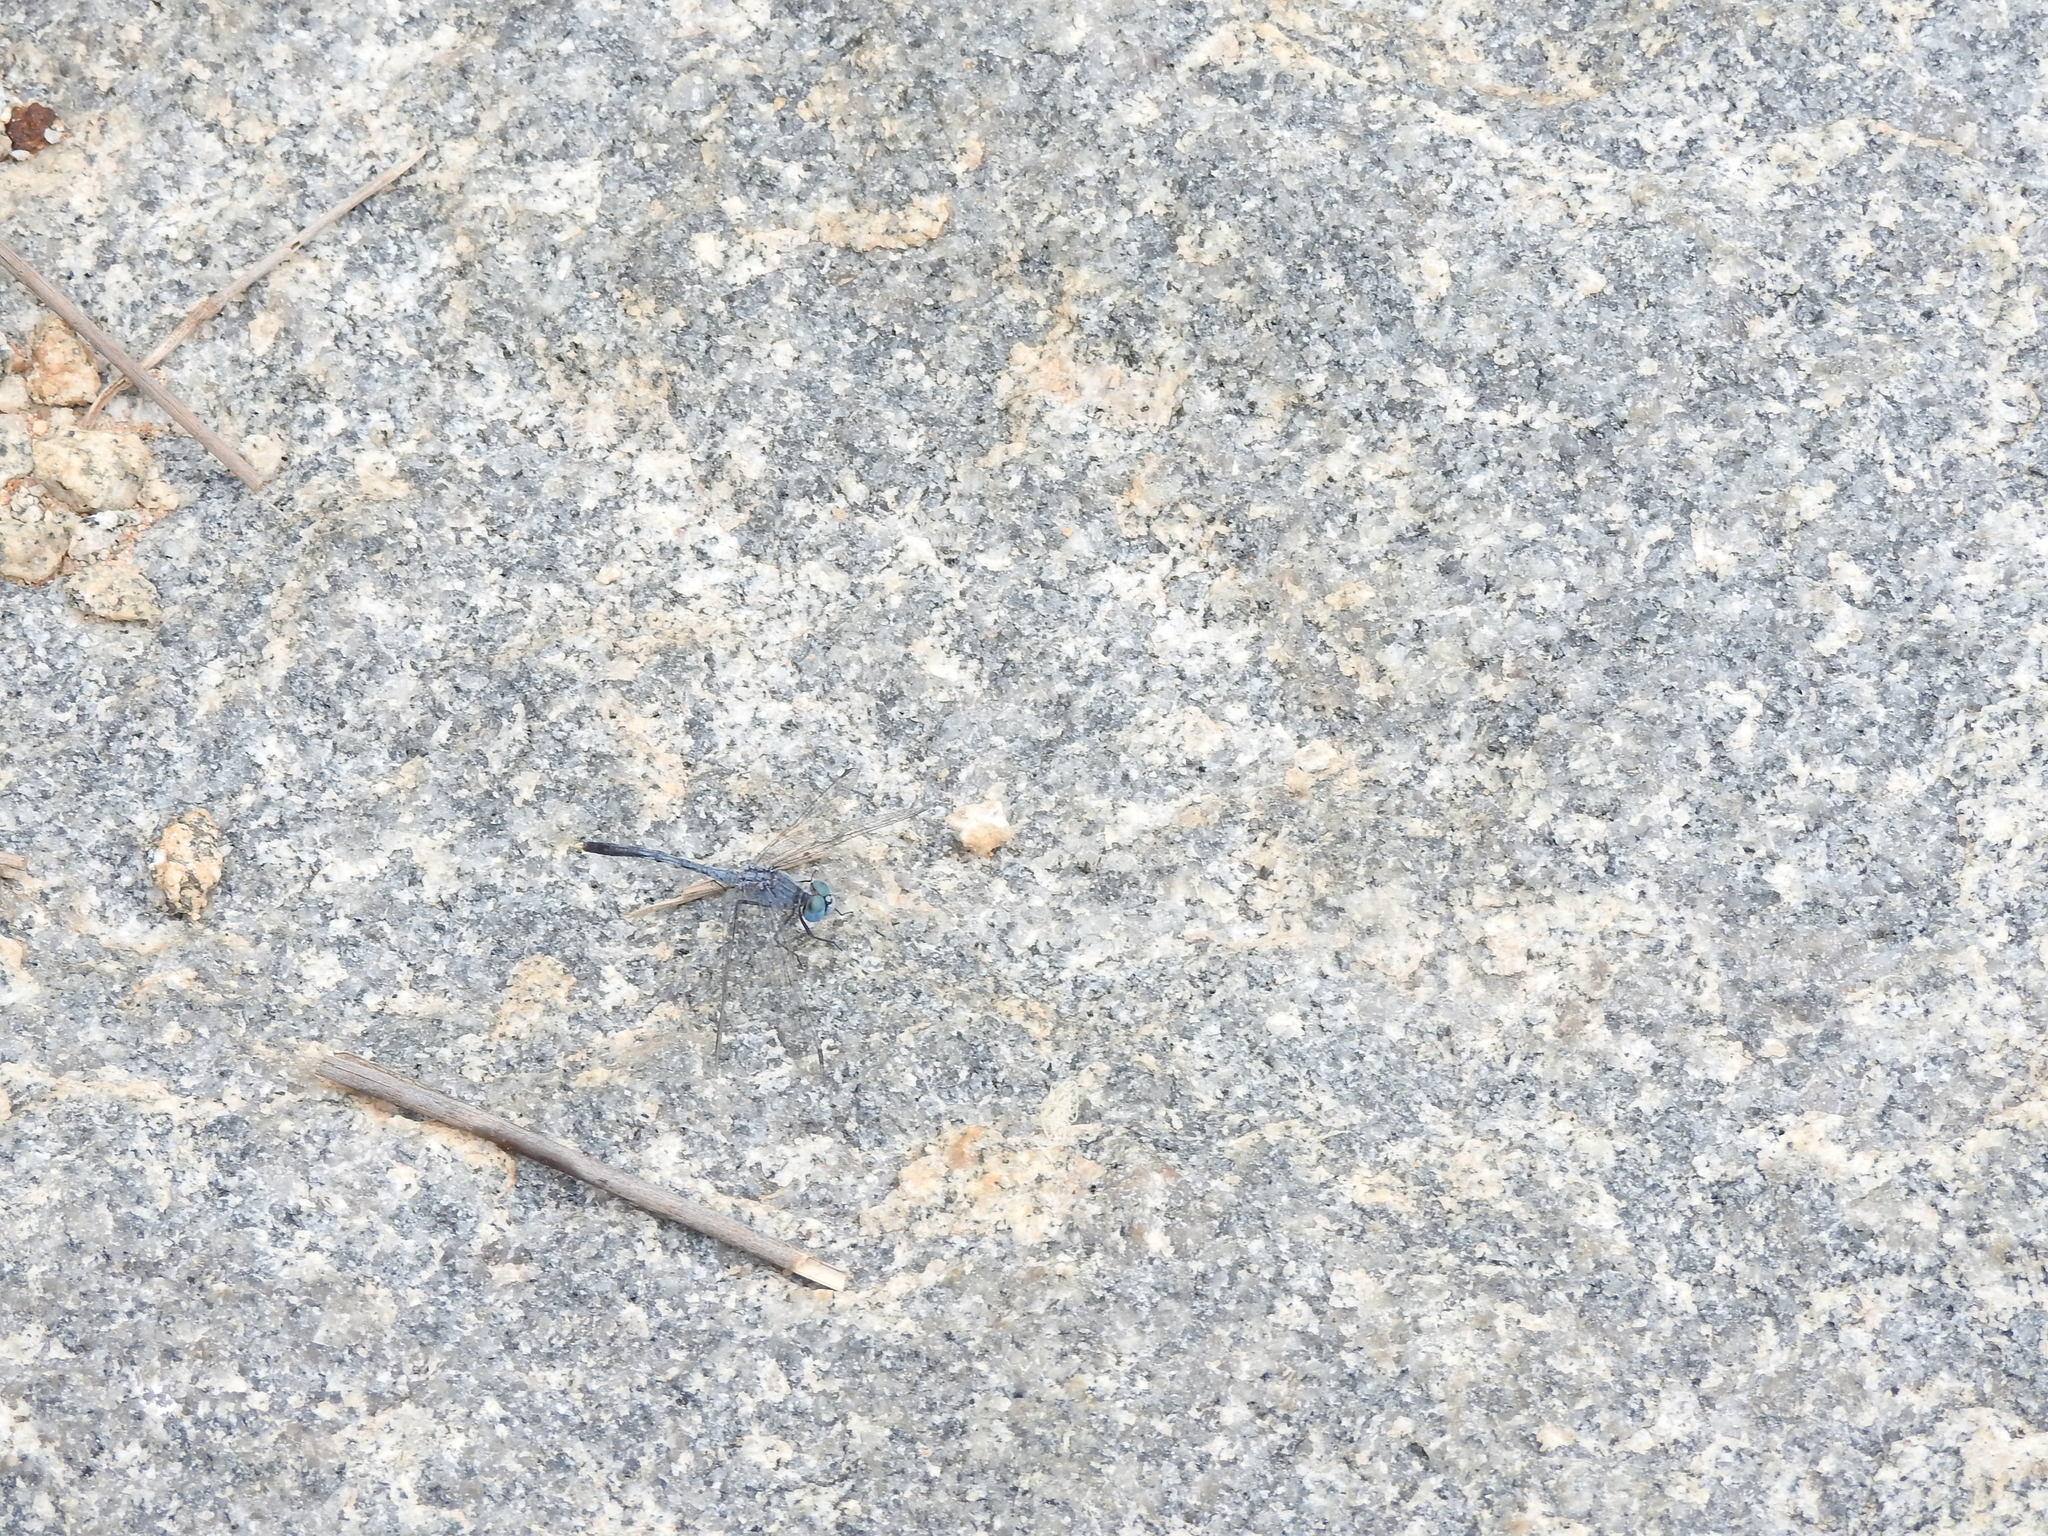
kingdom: Animalia
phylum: Arthropoda
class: Insecta
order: Odonata
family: Libellulidae
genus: Diplacodes
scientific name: Diplacodes trivialis
